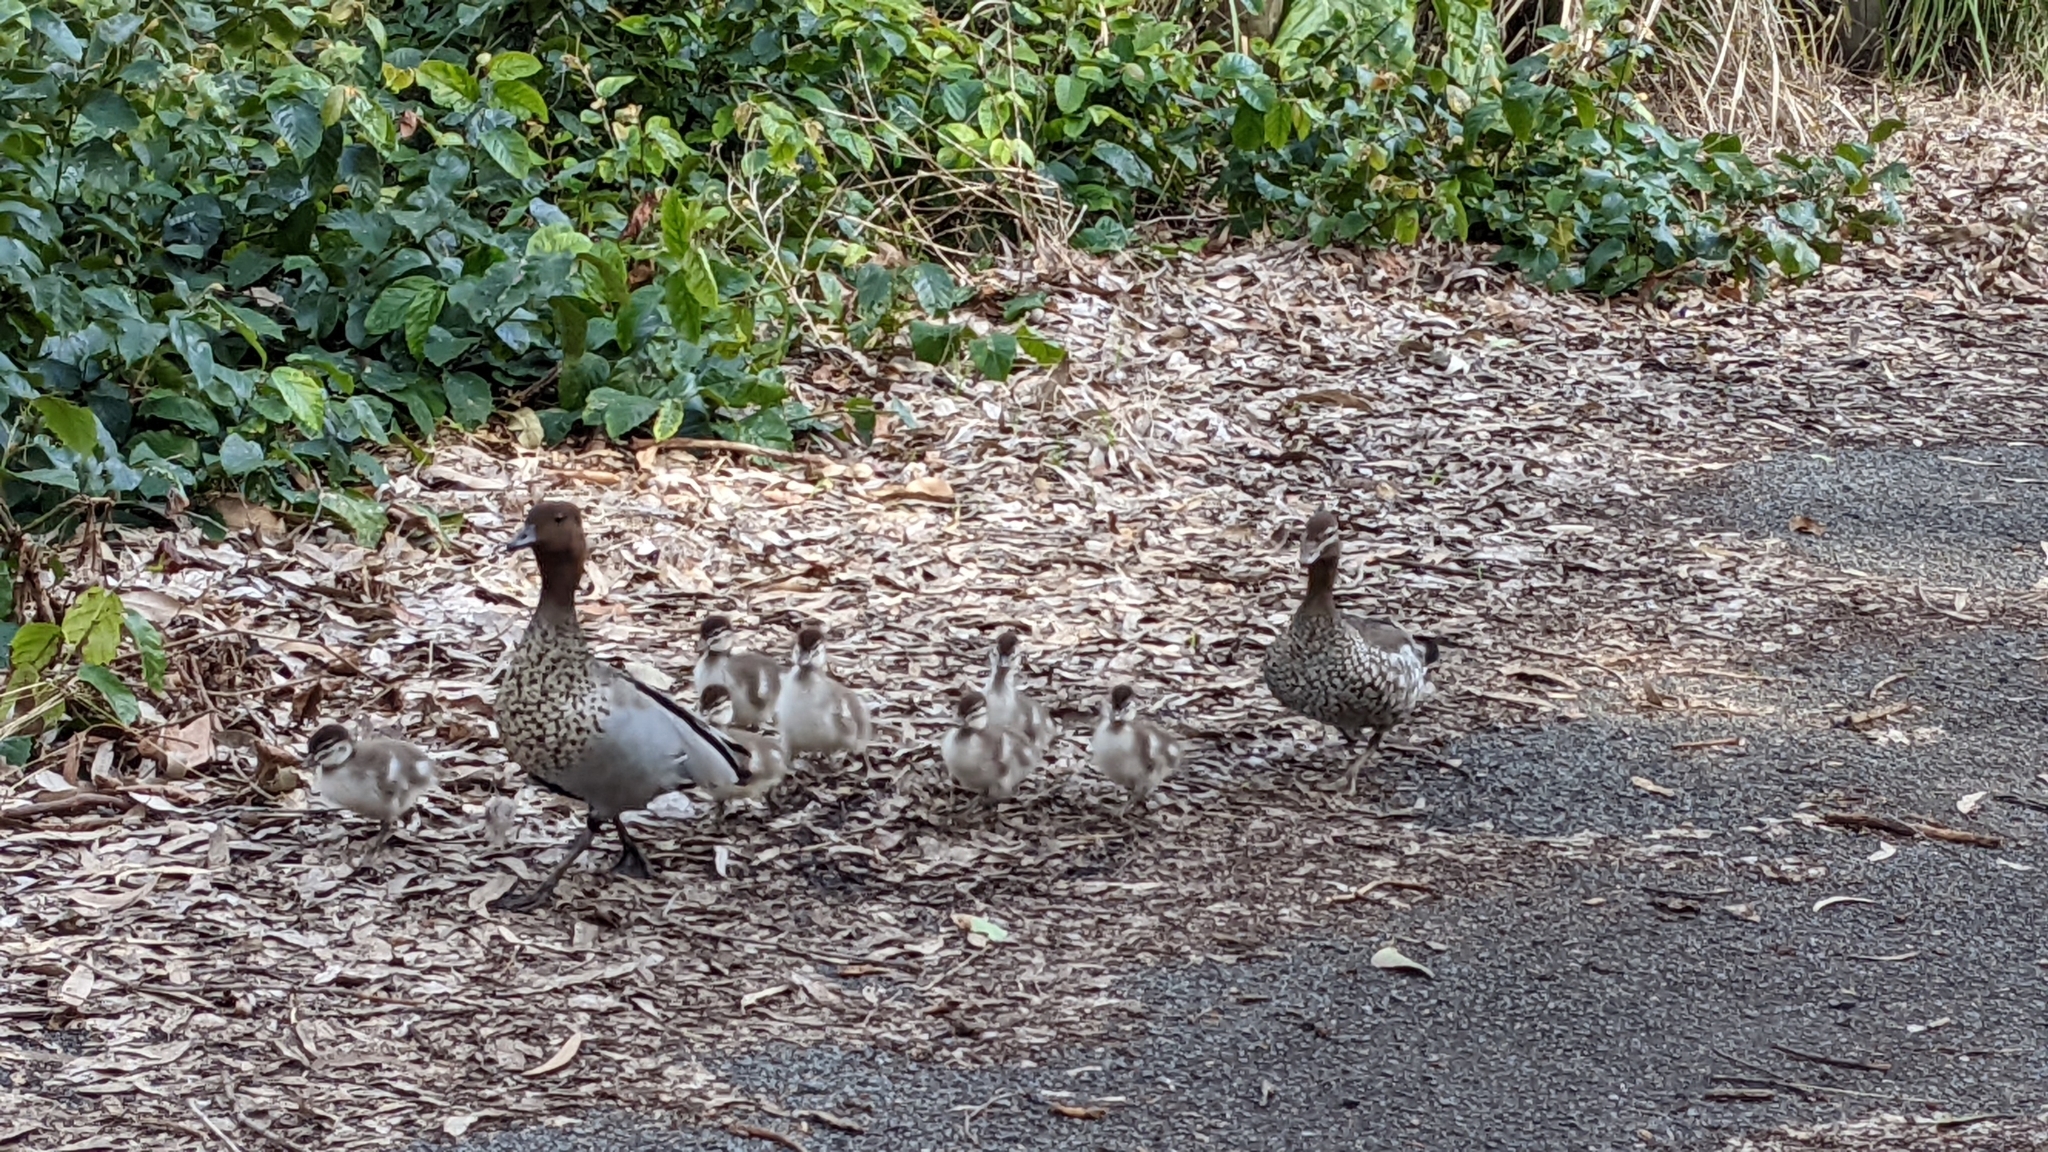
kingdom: Animalia
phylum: Chordata
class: Aves
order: Anseriformes
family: Anatidae
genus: Chenonetta
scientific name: Chenonetta jubata
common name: Maned duck
